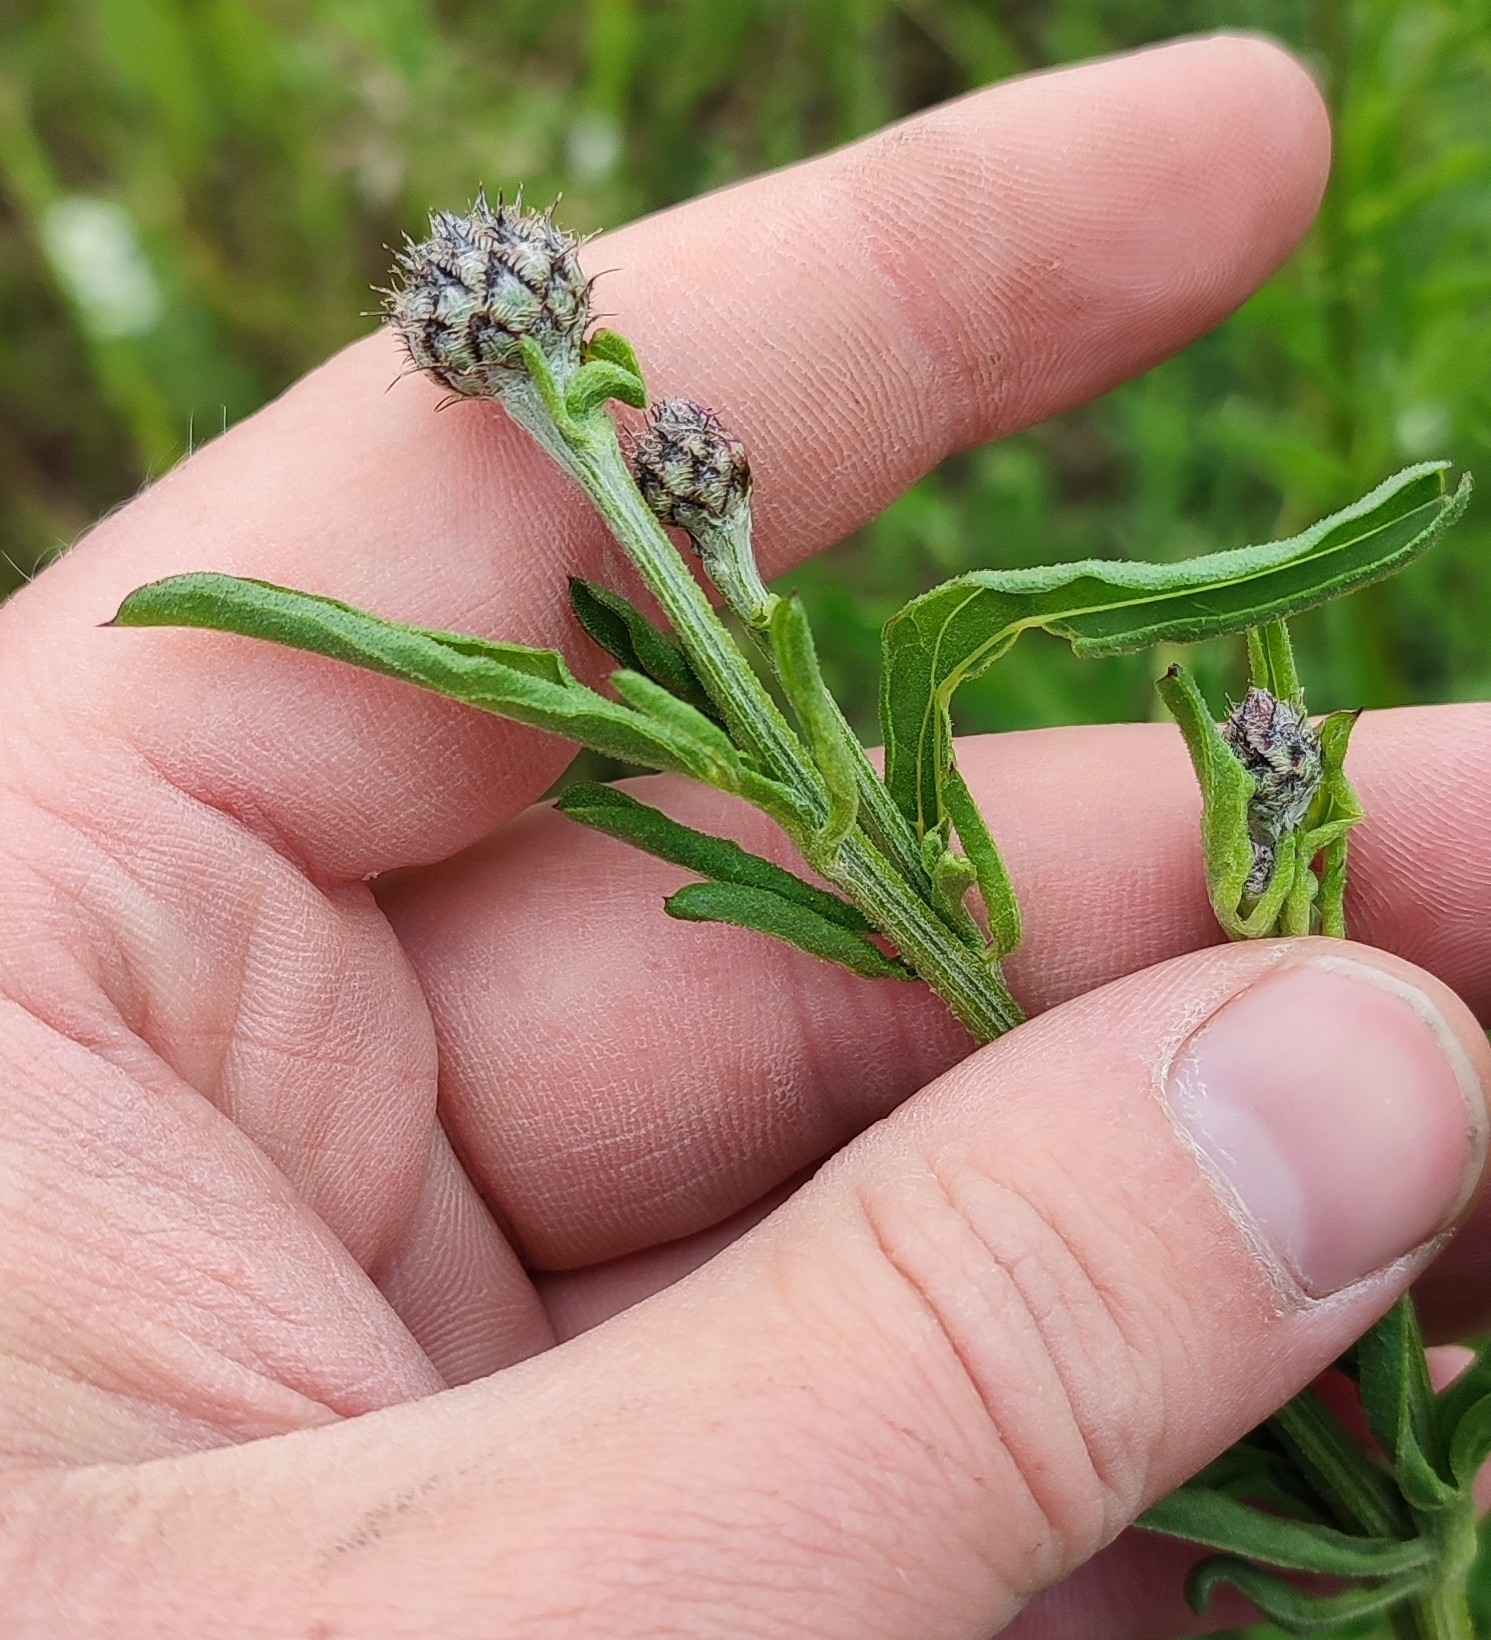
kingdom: Plantae
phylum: Tracheophyta
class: Magnoliopsida
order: Asterales
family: Asteraceae
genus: Centaurea
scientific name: Centaurea scabiosa
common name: Greater knapweed
